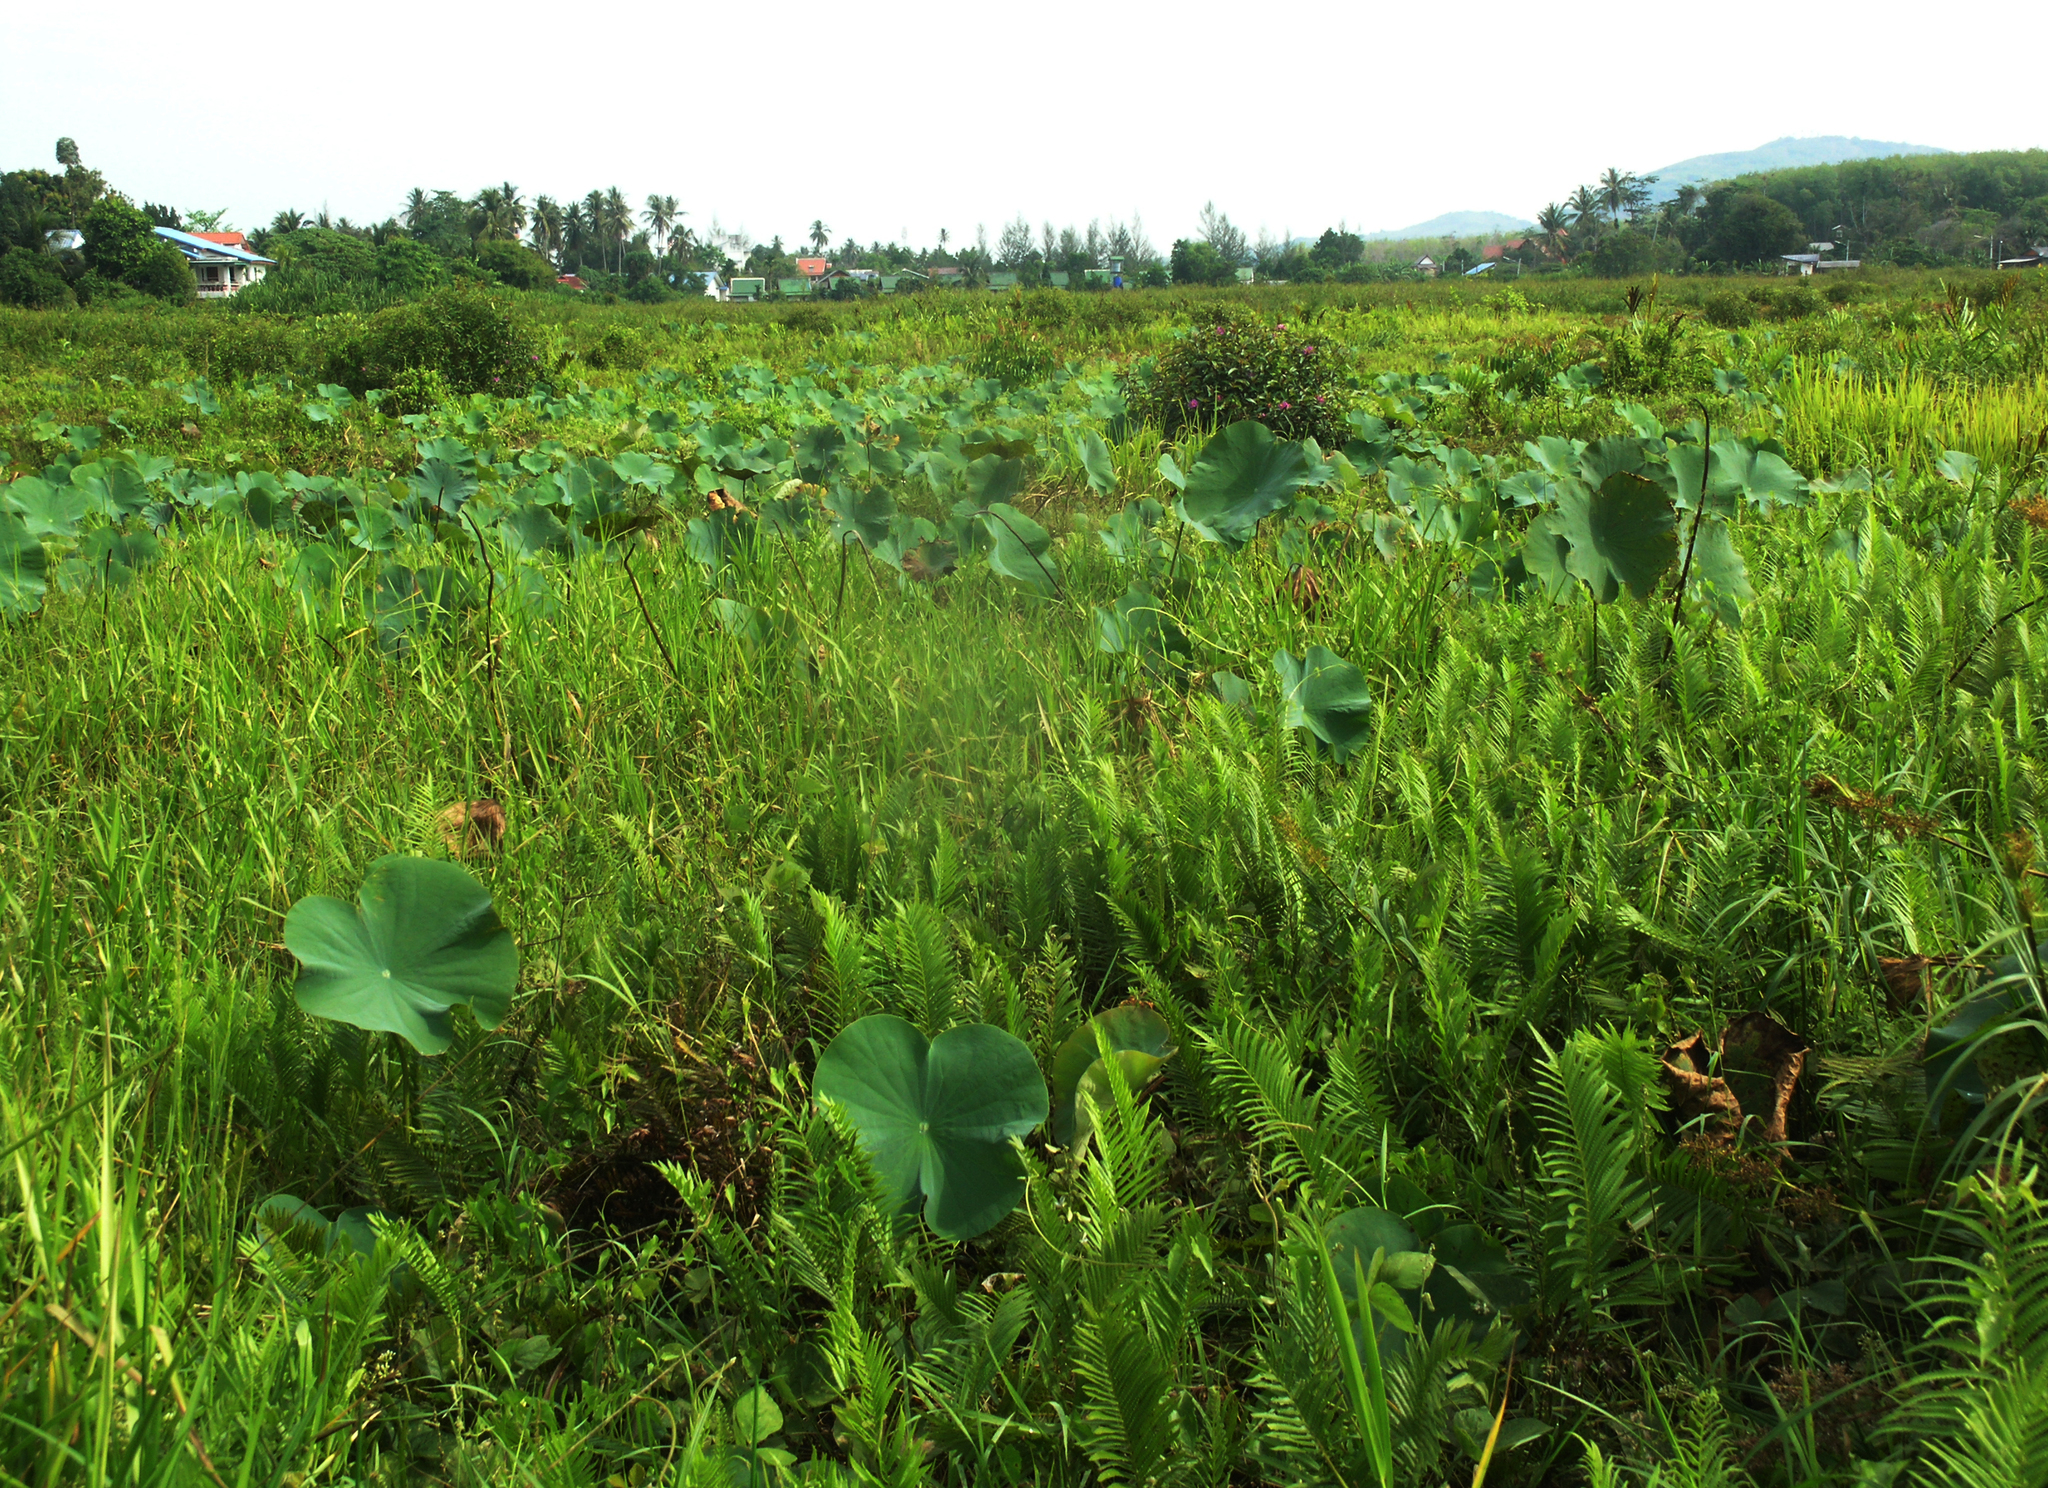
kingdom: Plantae
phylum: Tracheophyta
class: Magnoliopsida
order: Proteales
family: Nelumbonaceae
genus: Nelumbo
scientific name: Nelumbo nucifera
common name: Sacred lotus
